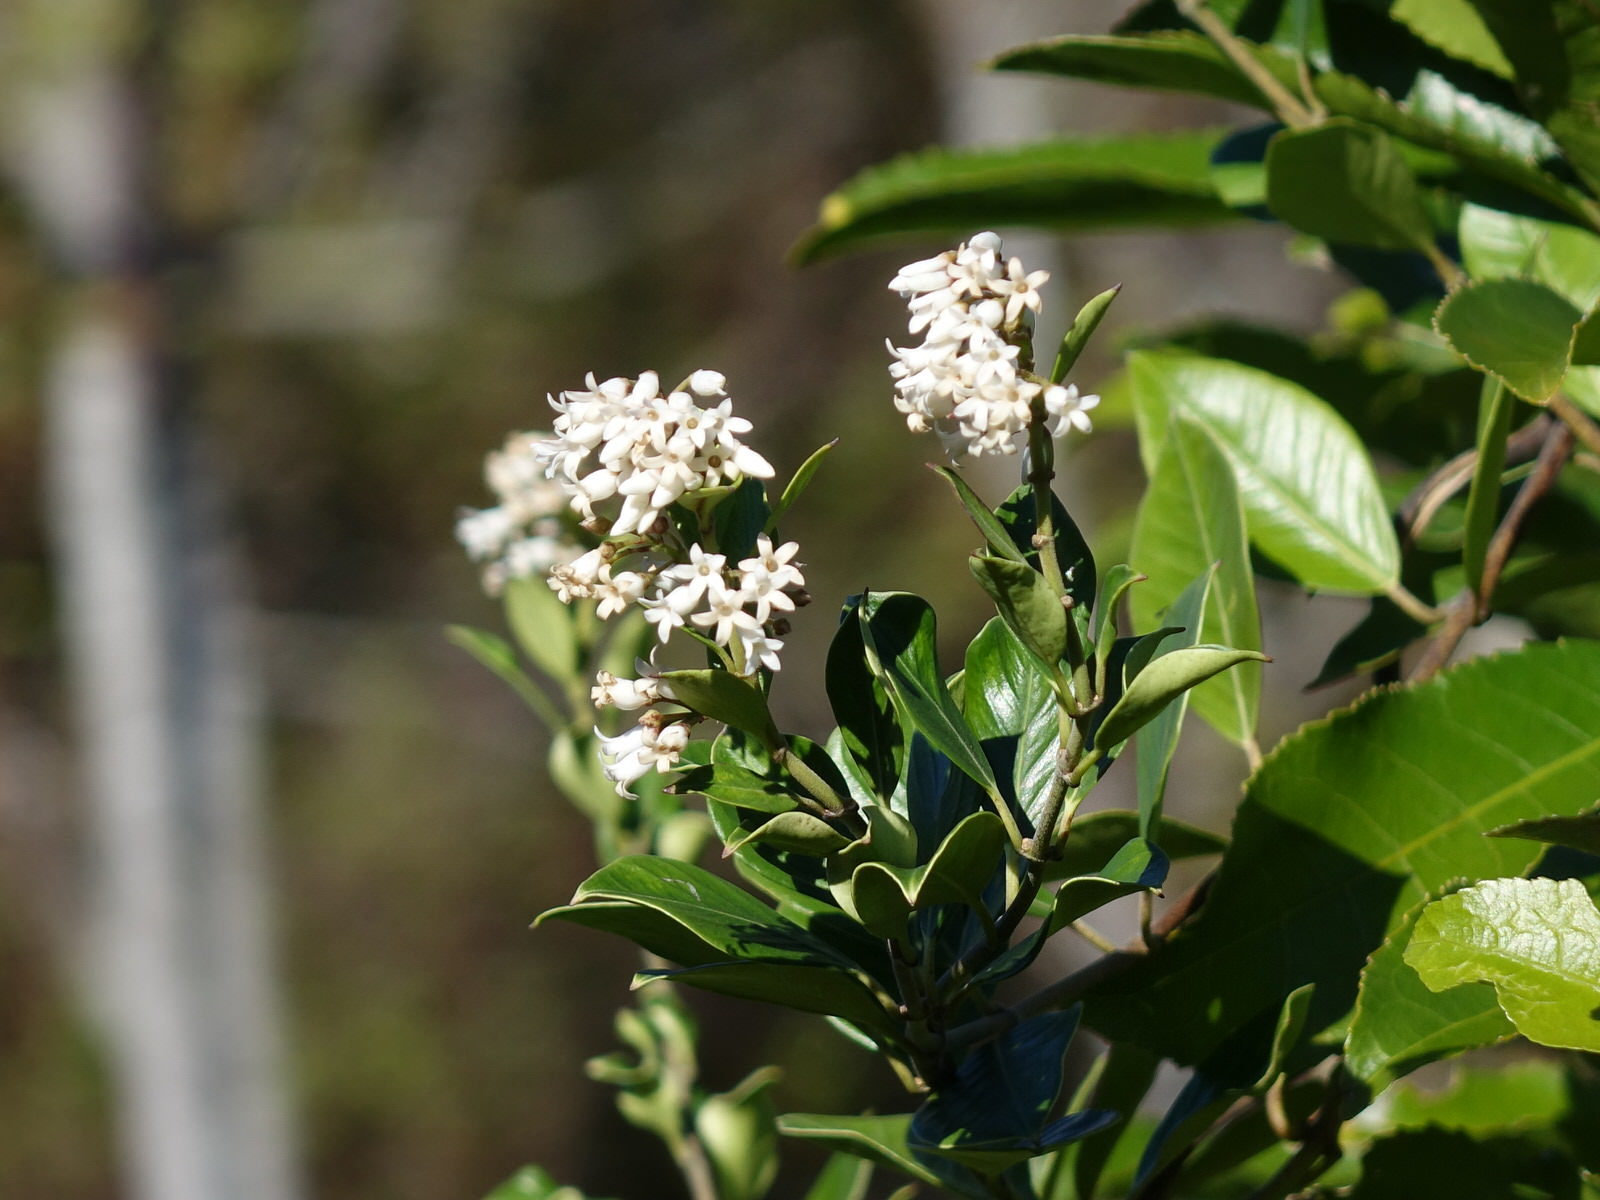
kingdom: Plantae
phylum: Tracheophyta
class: Magnoliopsida
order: Gentianales
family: Apocynaceae
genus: Parsonsia
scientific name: Parsonsia heterophylla
